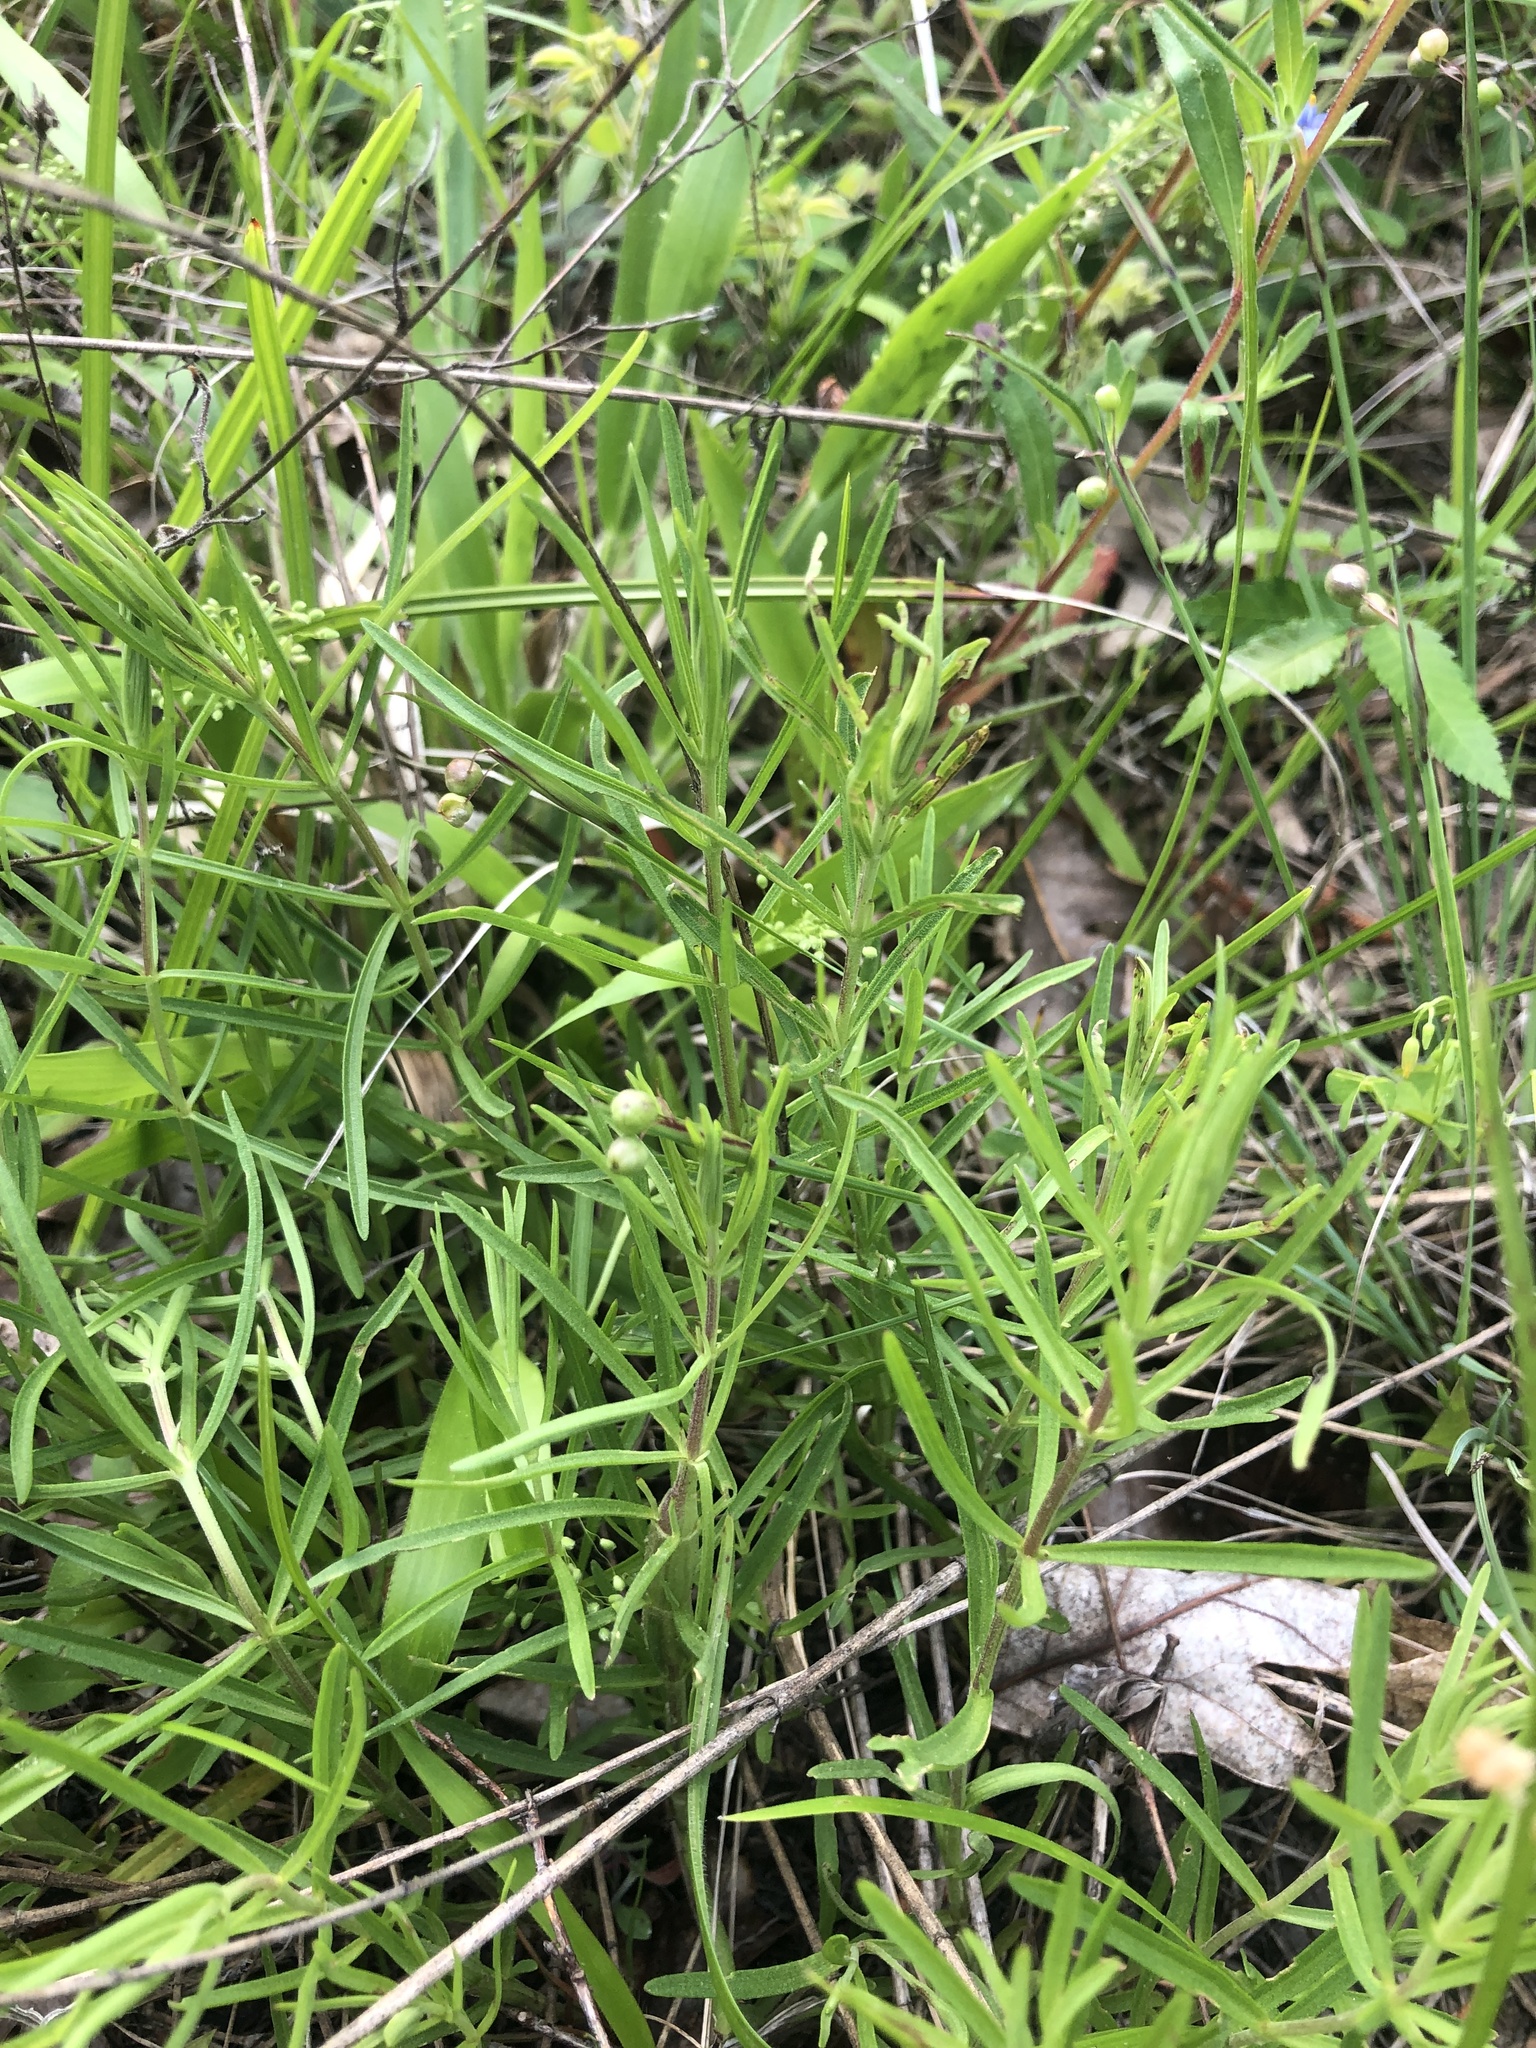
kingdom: Plantae
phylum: Tracheophyta
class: Magnoliopsida
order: Asterales
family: Asteraceae
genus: Eupatorium
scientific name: Eupatorium hyssopifolium
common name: Hyssop-leaf thoroughwort
